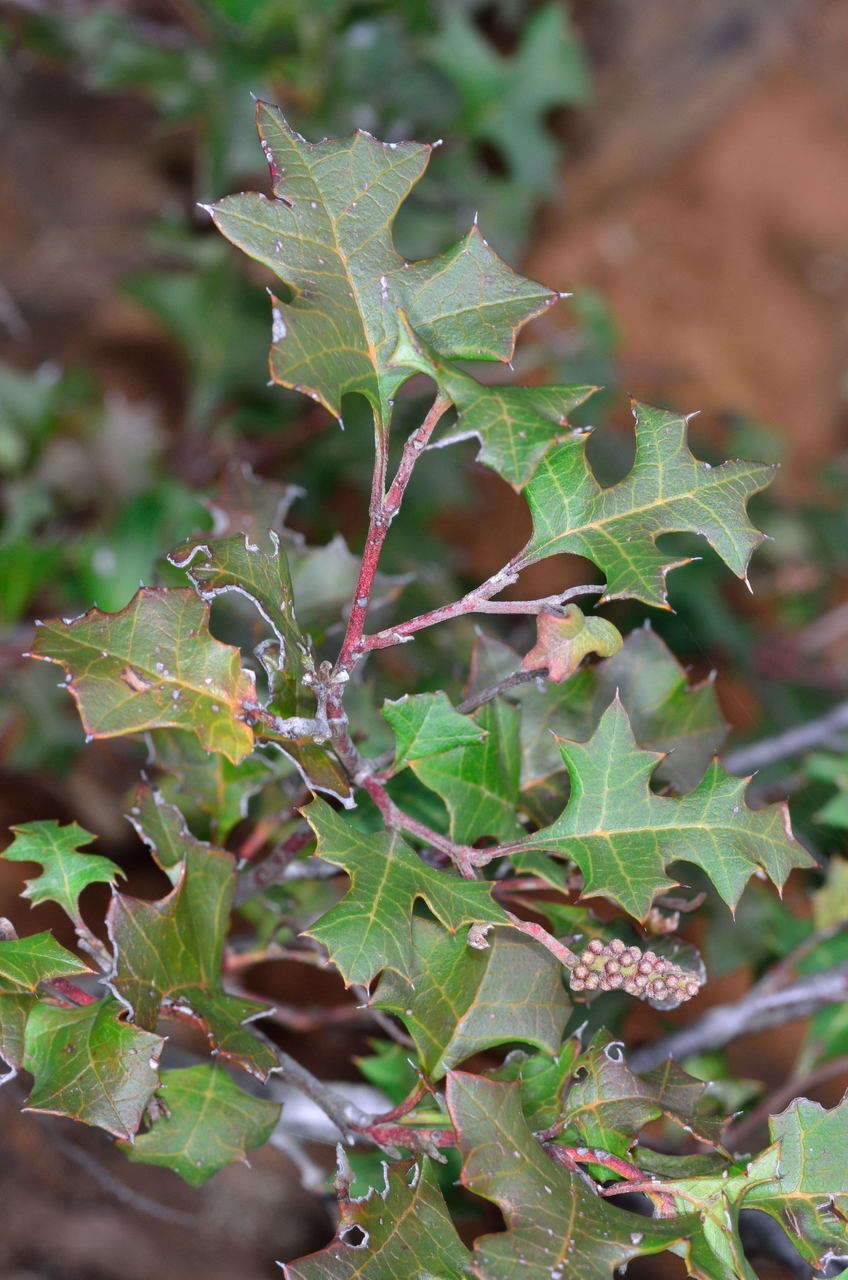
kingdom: Plantae
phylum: Tracheophyta
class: Magnoliopsida
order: Proteales
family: Proteaceae
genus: Grevillea
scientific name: Grevillea steiglitziana
